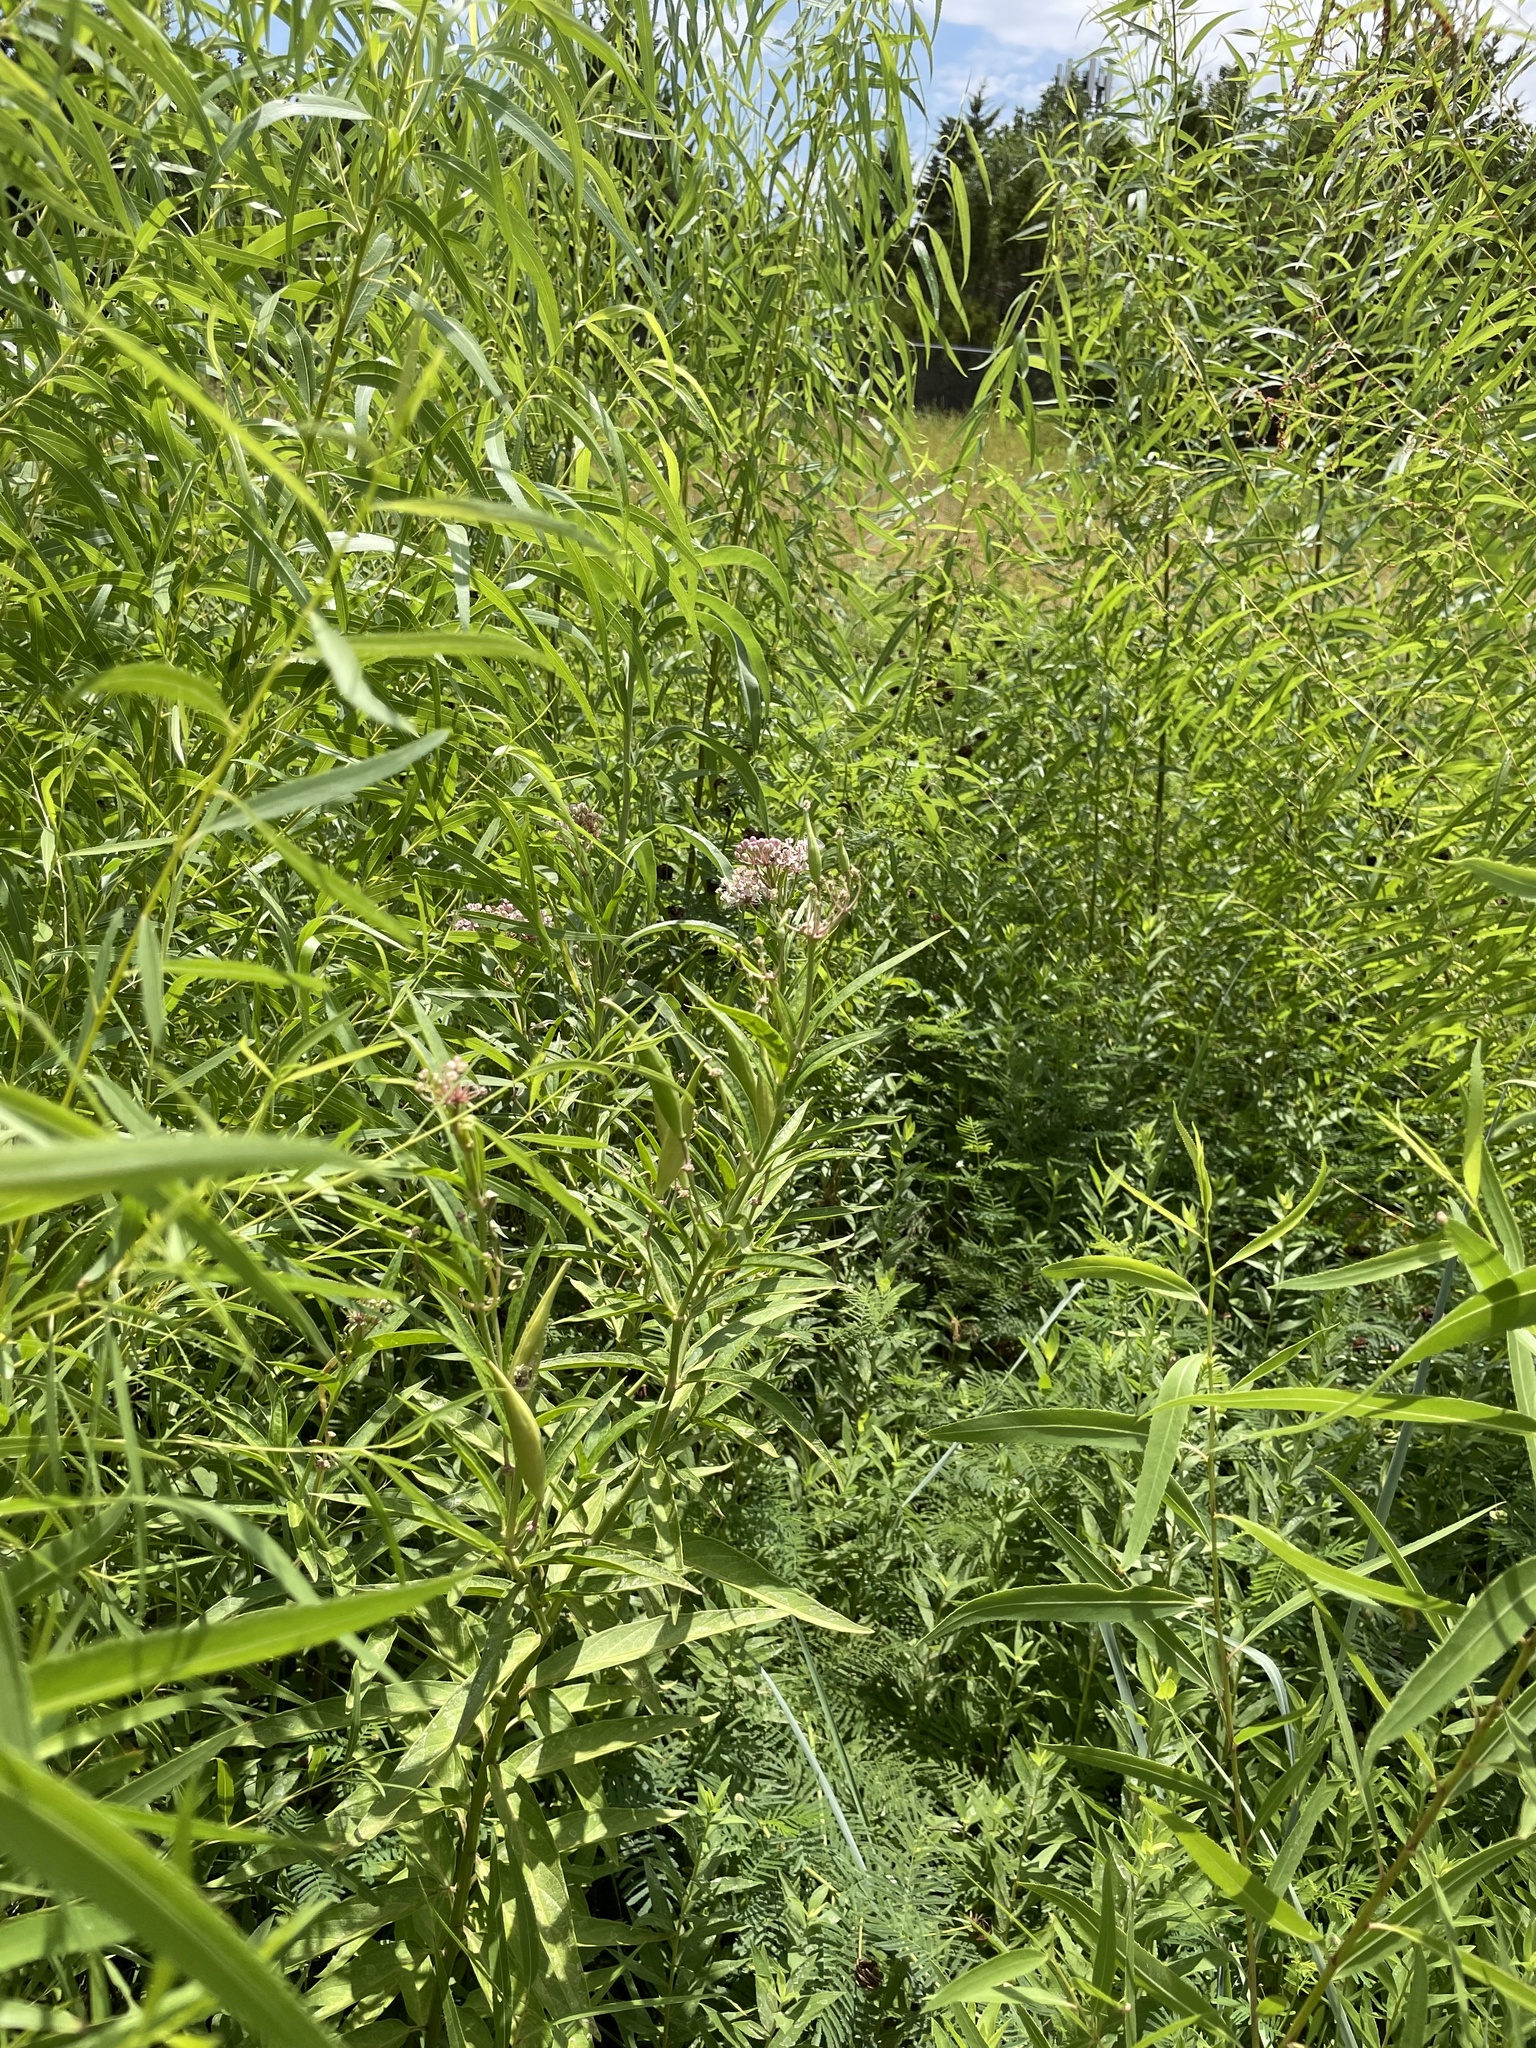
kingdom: Plantae
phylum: Tracheophyta
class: Magnoliopsida
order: Gentianales
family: Apocynaceae
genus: Asclepias
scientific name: Asclepias incarnata
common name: Swamp milkweed
